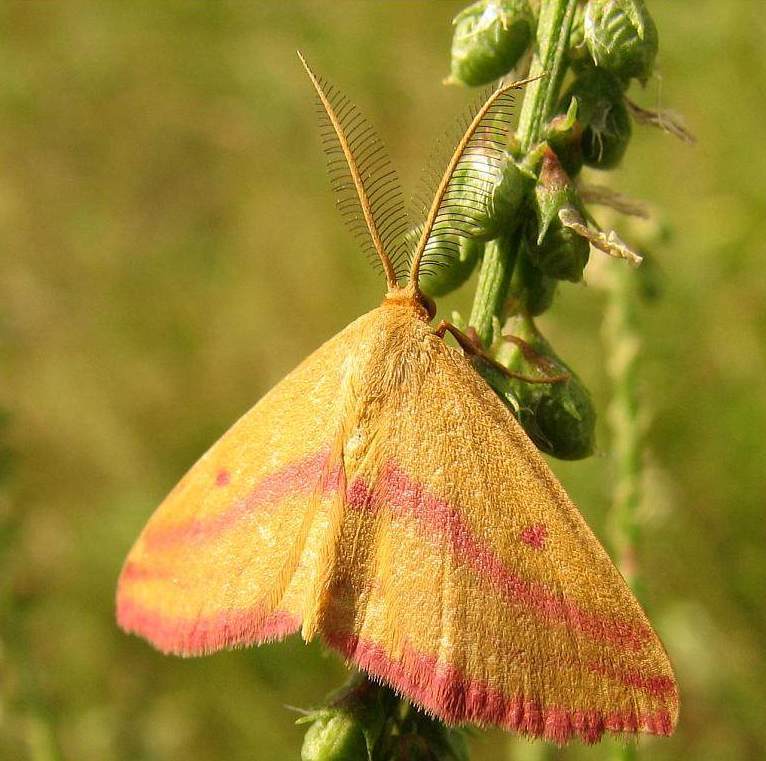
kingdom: Animalia
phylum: Arthropoda
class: Insecta
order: Lepidoptera
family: Geometridae
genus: Haematopis
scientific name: Haematopis grataria
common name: Chickweed geometer
